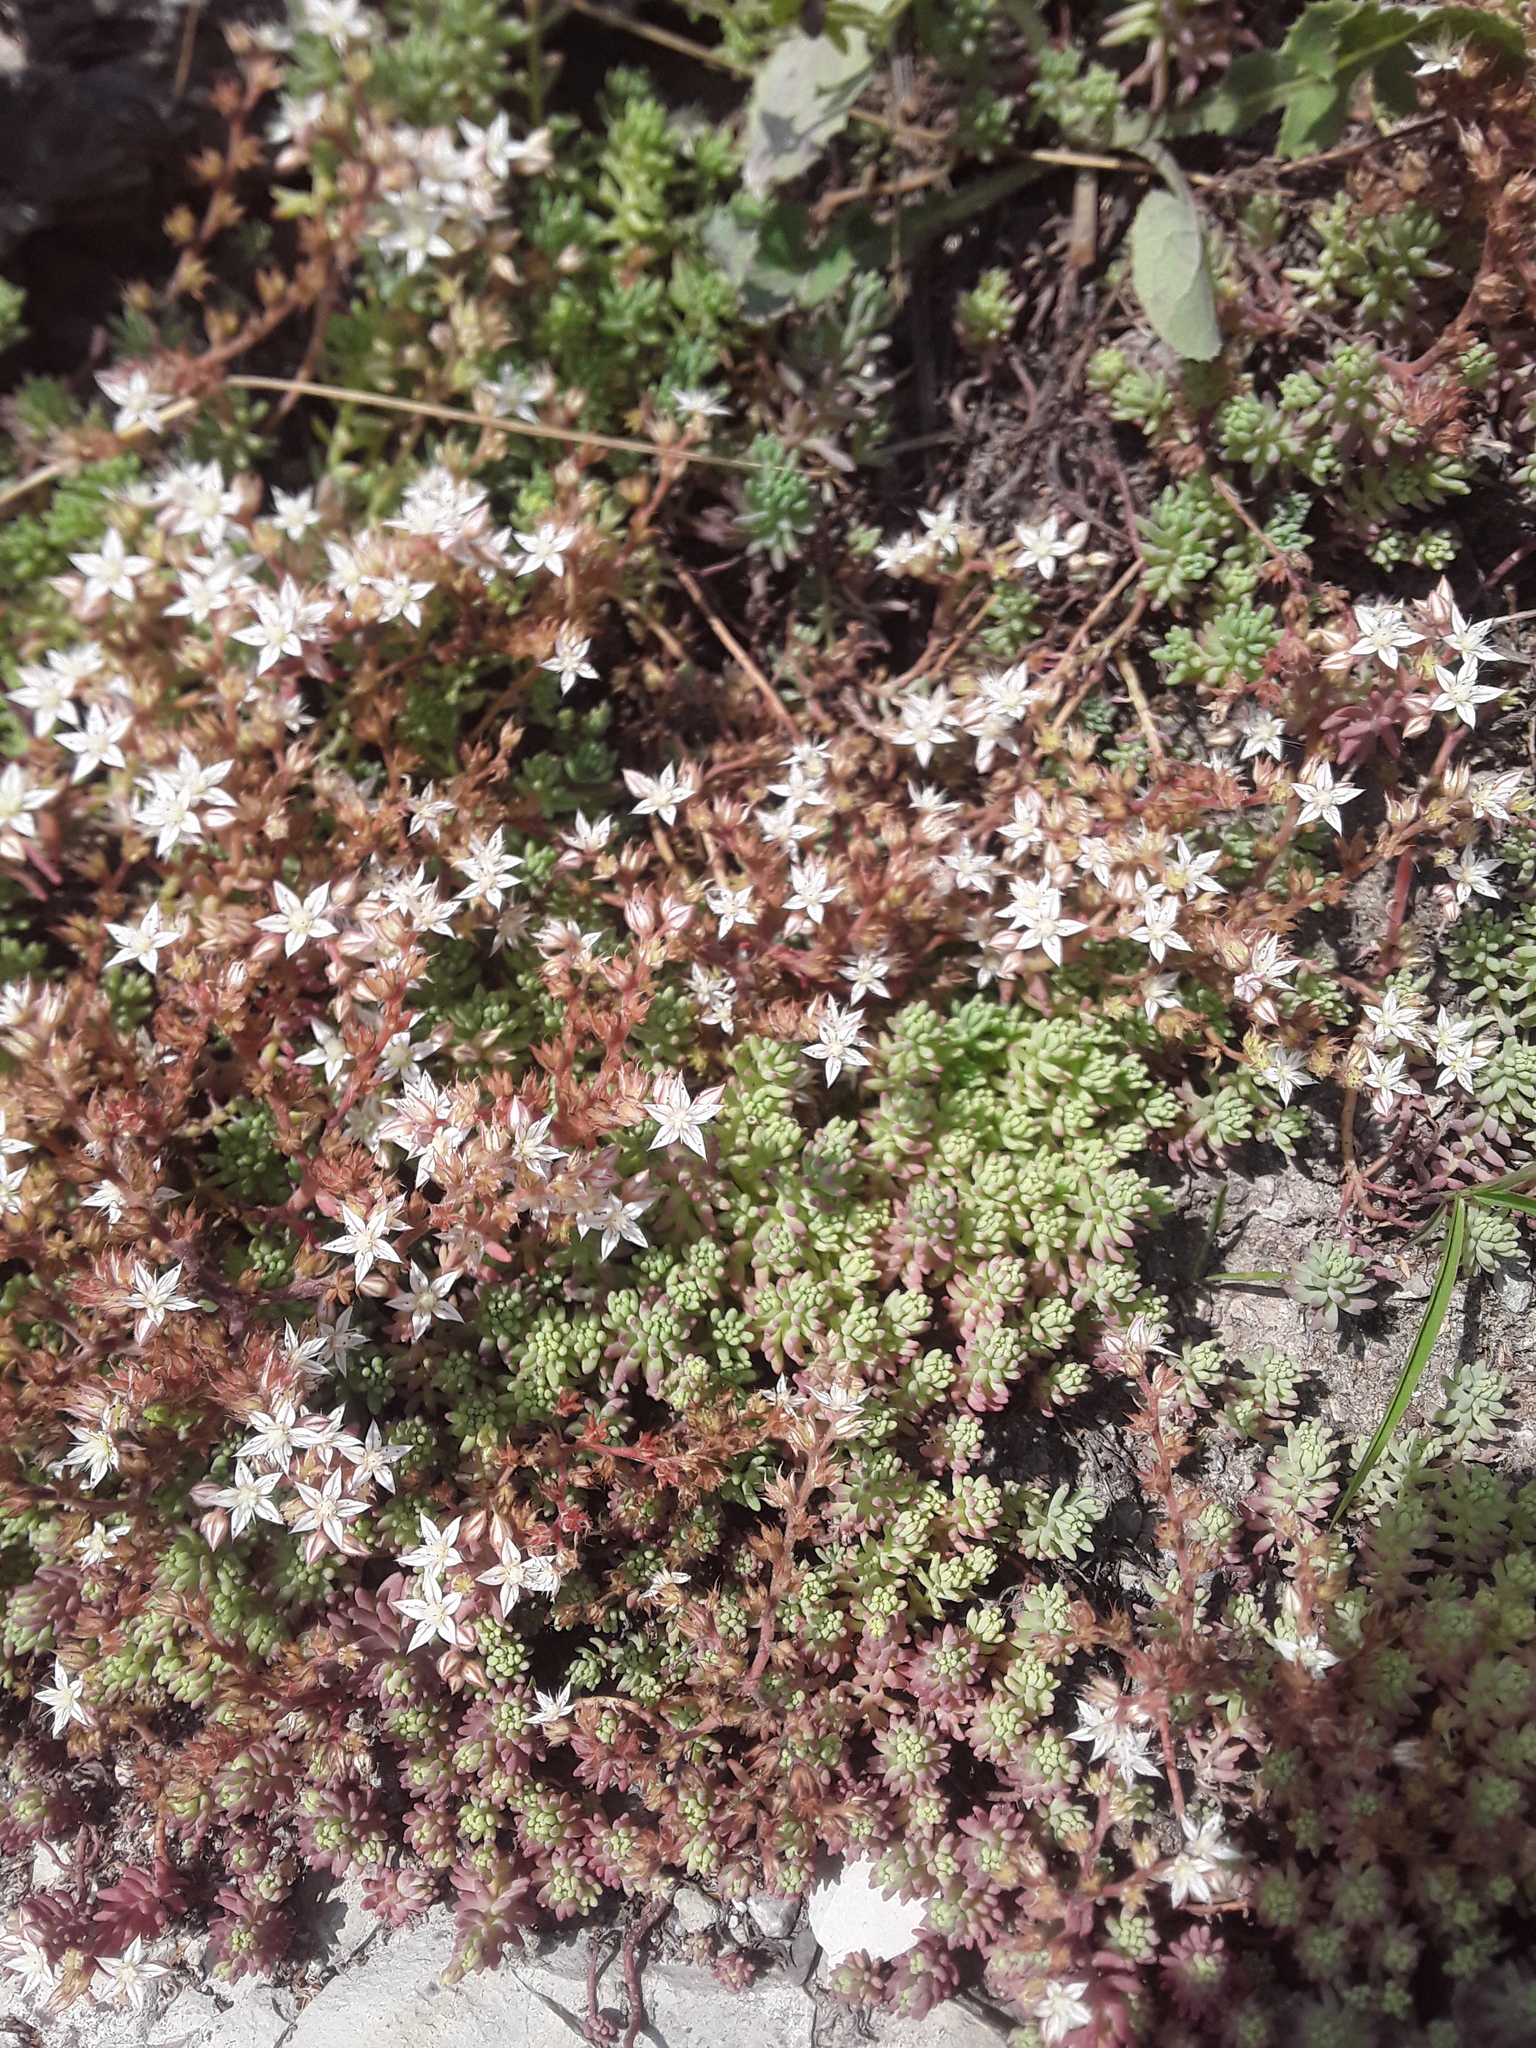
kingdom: Plantae
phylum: Tracheophyta
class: Magnoliopsida
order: Saxifragales
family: Crassulaceae
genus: Sedum
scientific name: Sedum pallidum
